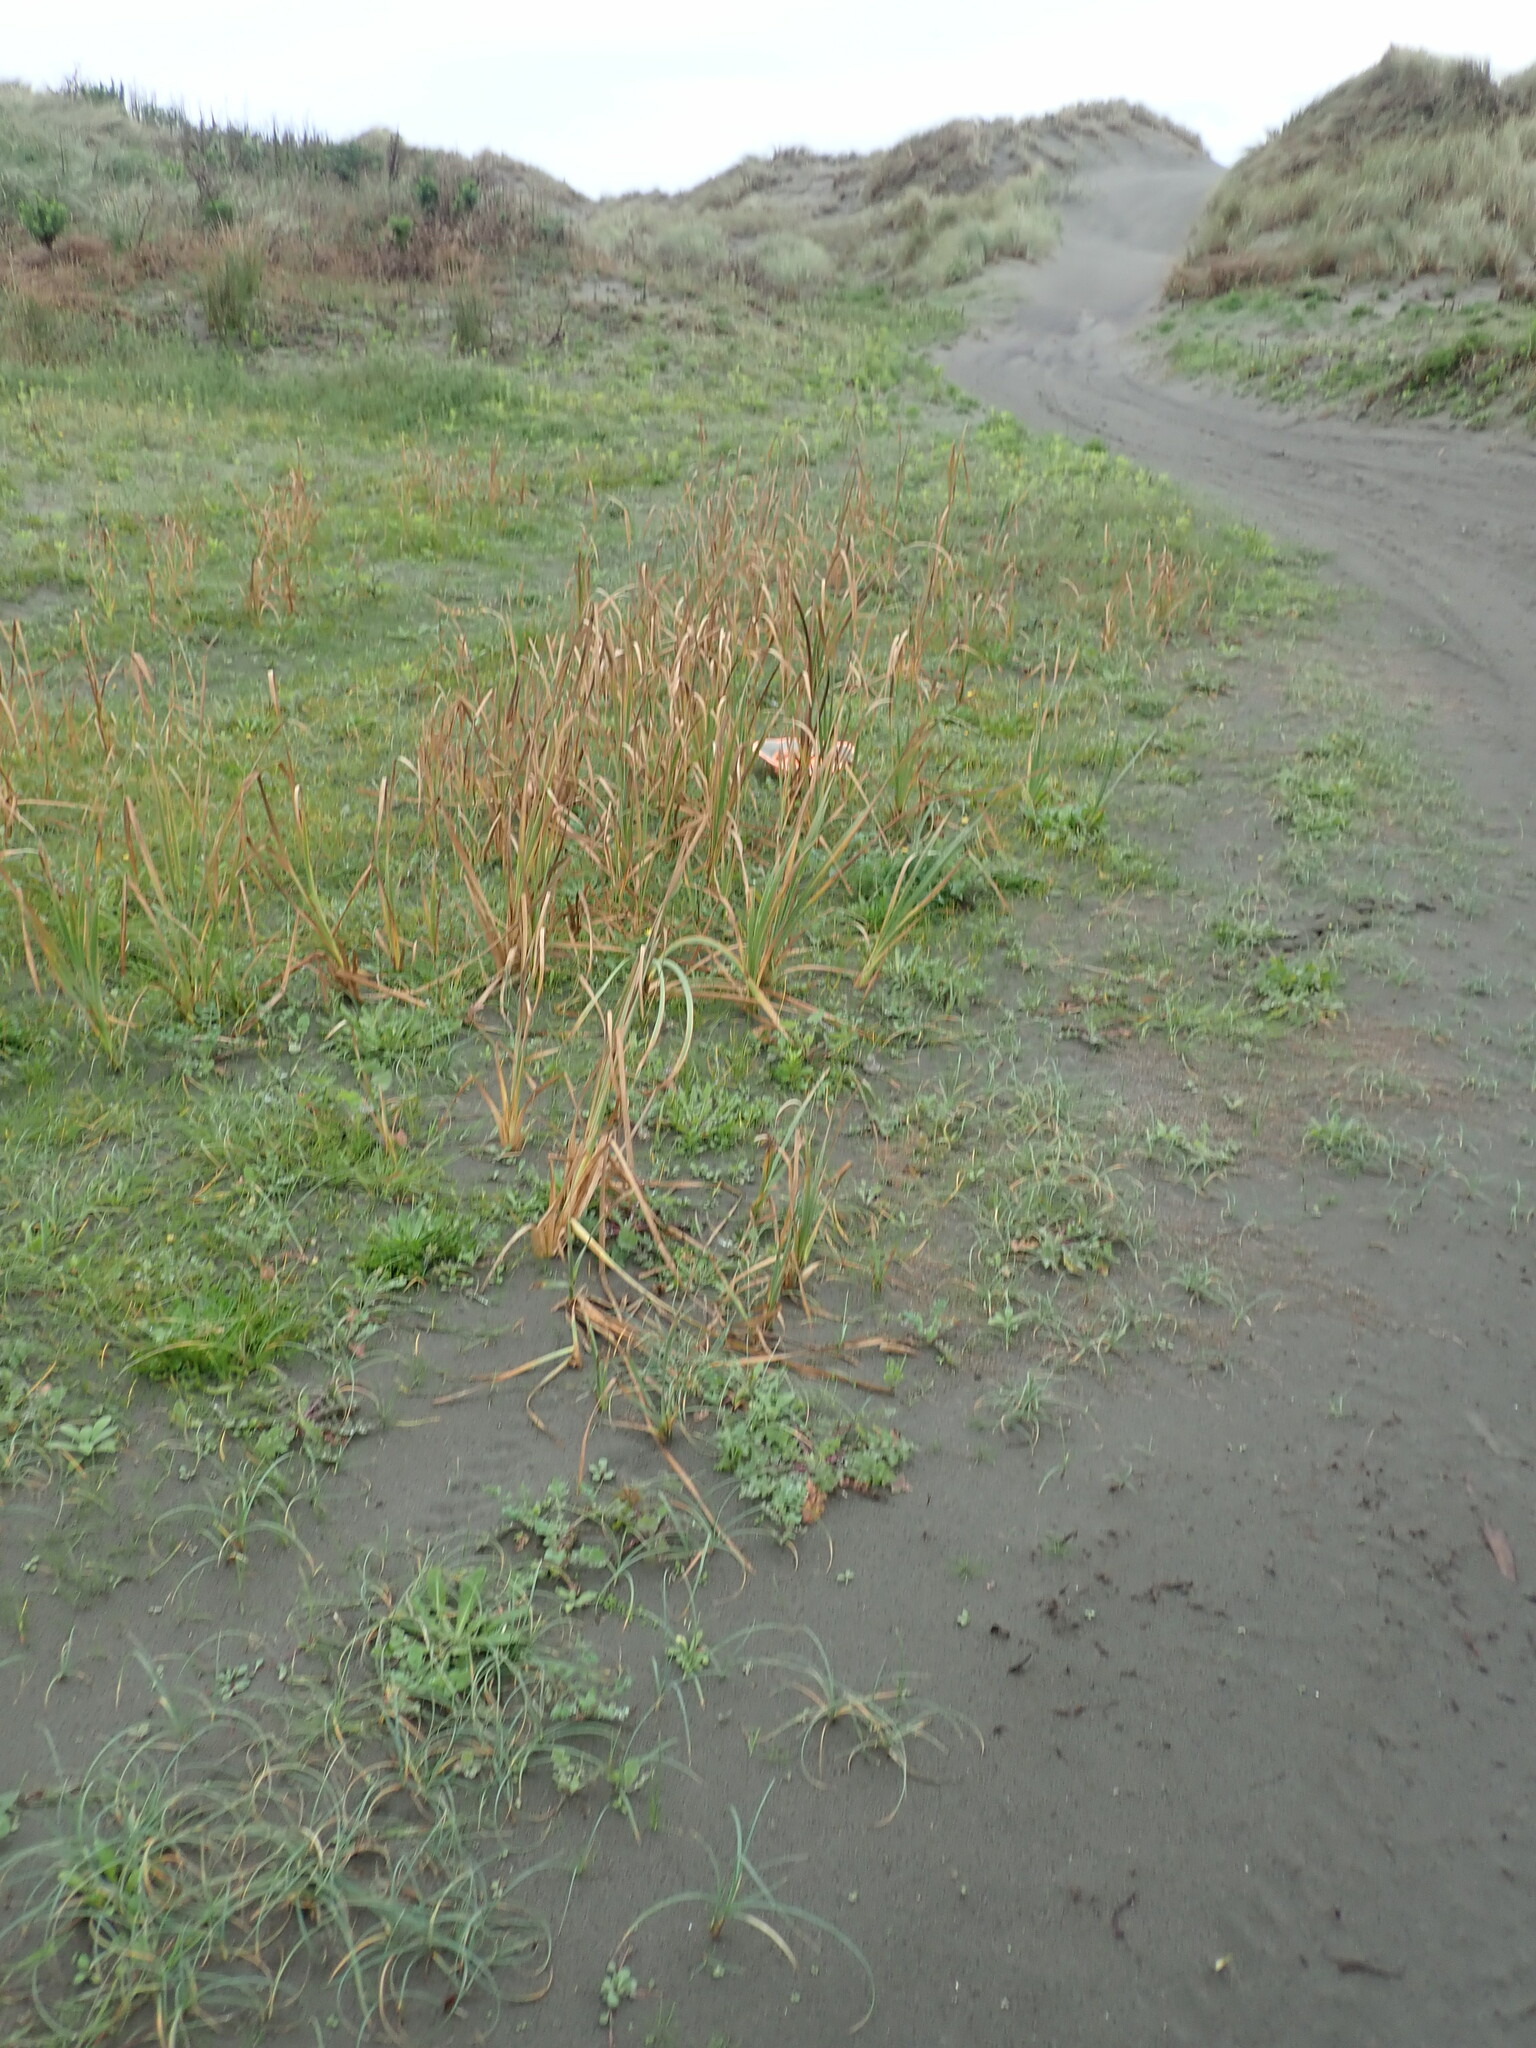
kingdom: Plantae
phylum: Tracheophyta
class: Liliopsida
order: Alismatales
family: Juncaginaceae
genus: Triglochin
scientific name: Triglochin striata
